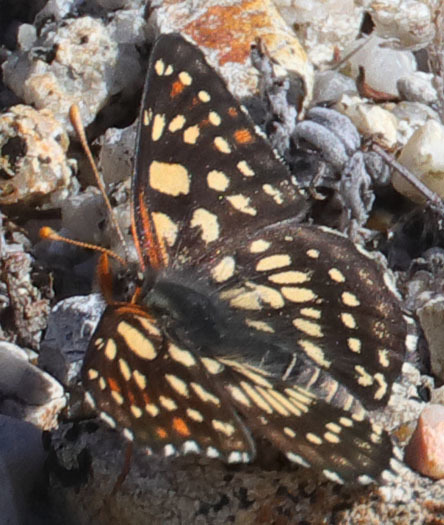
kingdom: Animalia
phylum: Arthropoda
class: Insecta
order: Lepidoptera
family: Nymphalidae
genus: Thessalia
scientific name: Thessalia leanira
